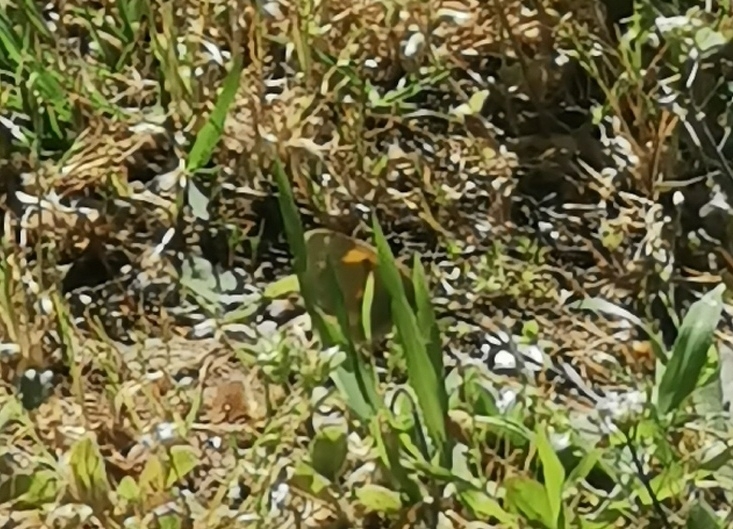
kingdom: Animalia
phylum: Arthropoda
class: Insecta
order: Lepidoptera
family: Pieridae
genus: Colias
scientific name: Colias croceus
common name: Clouded yellow
